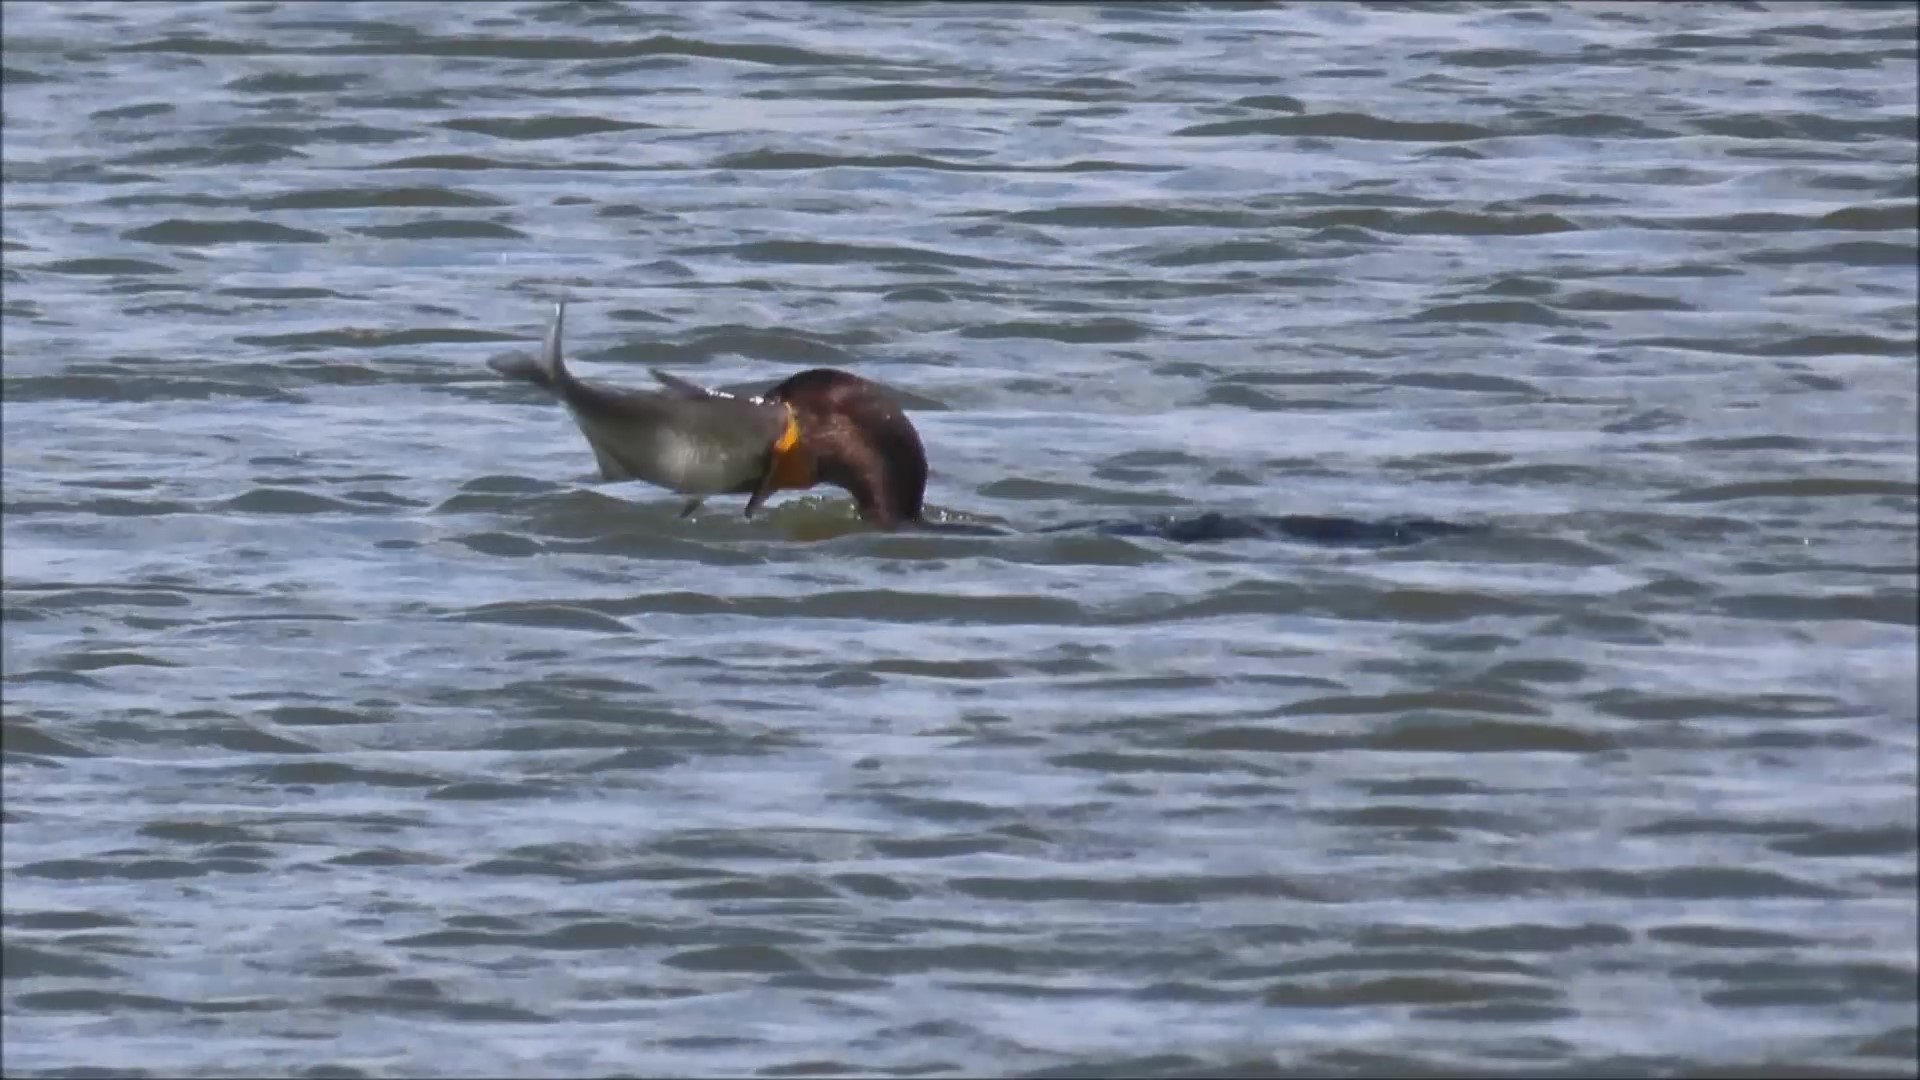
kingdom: Animalia
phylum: Chordata
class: Aves
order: Suliformes
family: Phalacrocoracidae
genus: Phalacrocorax
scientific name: Phalacrocorax auritus
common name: Double-crested cormorant
